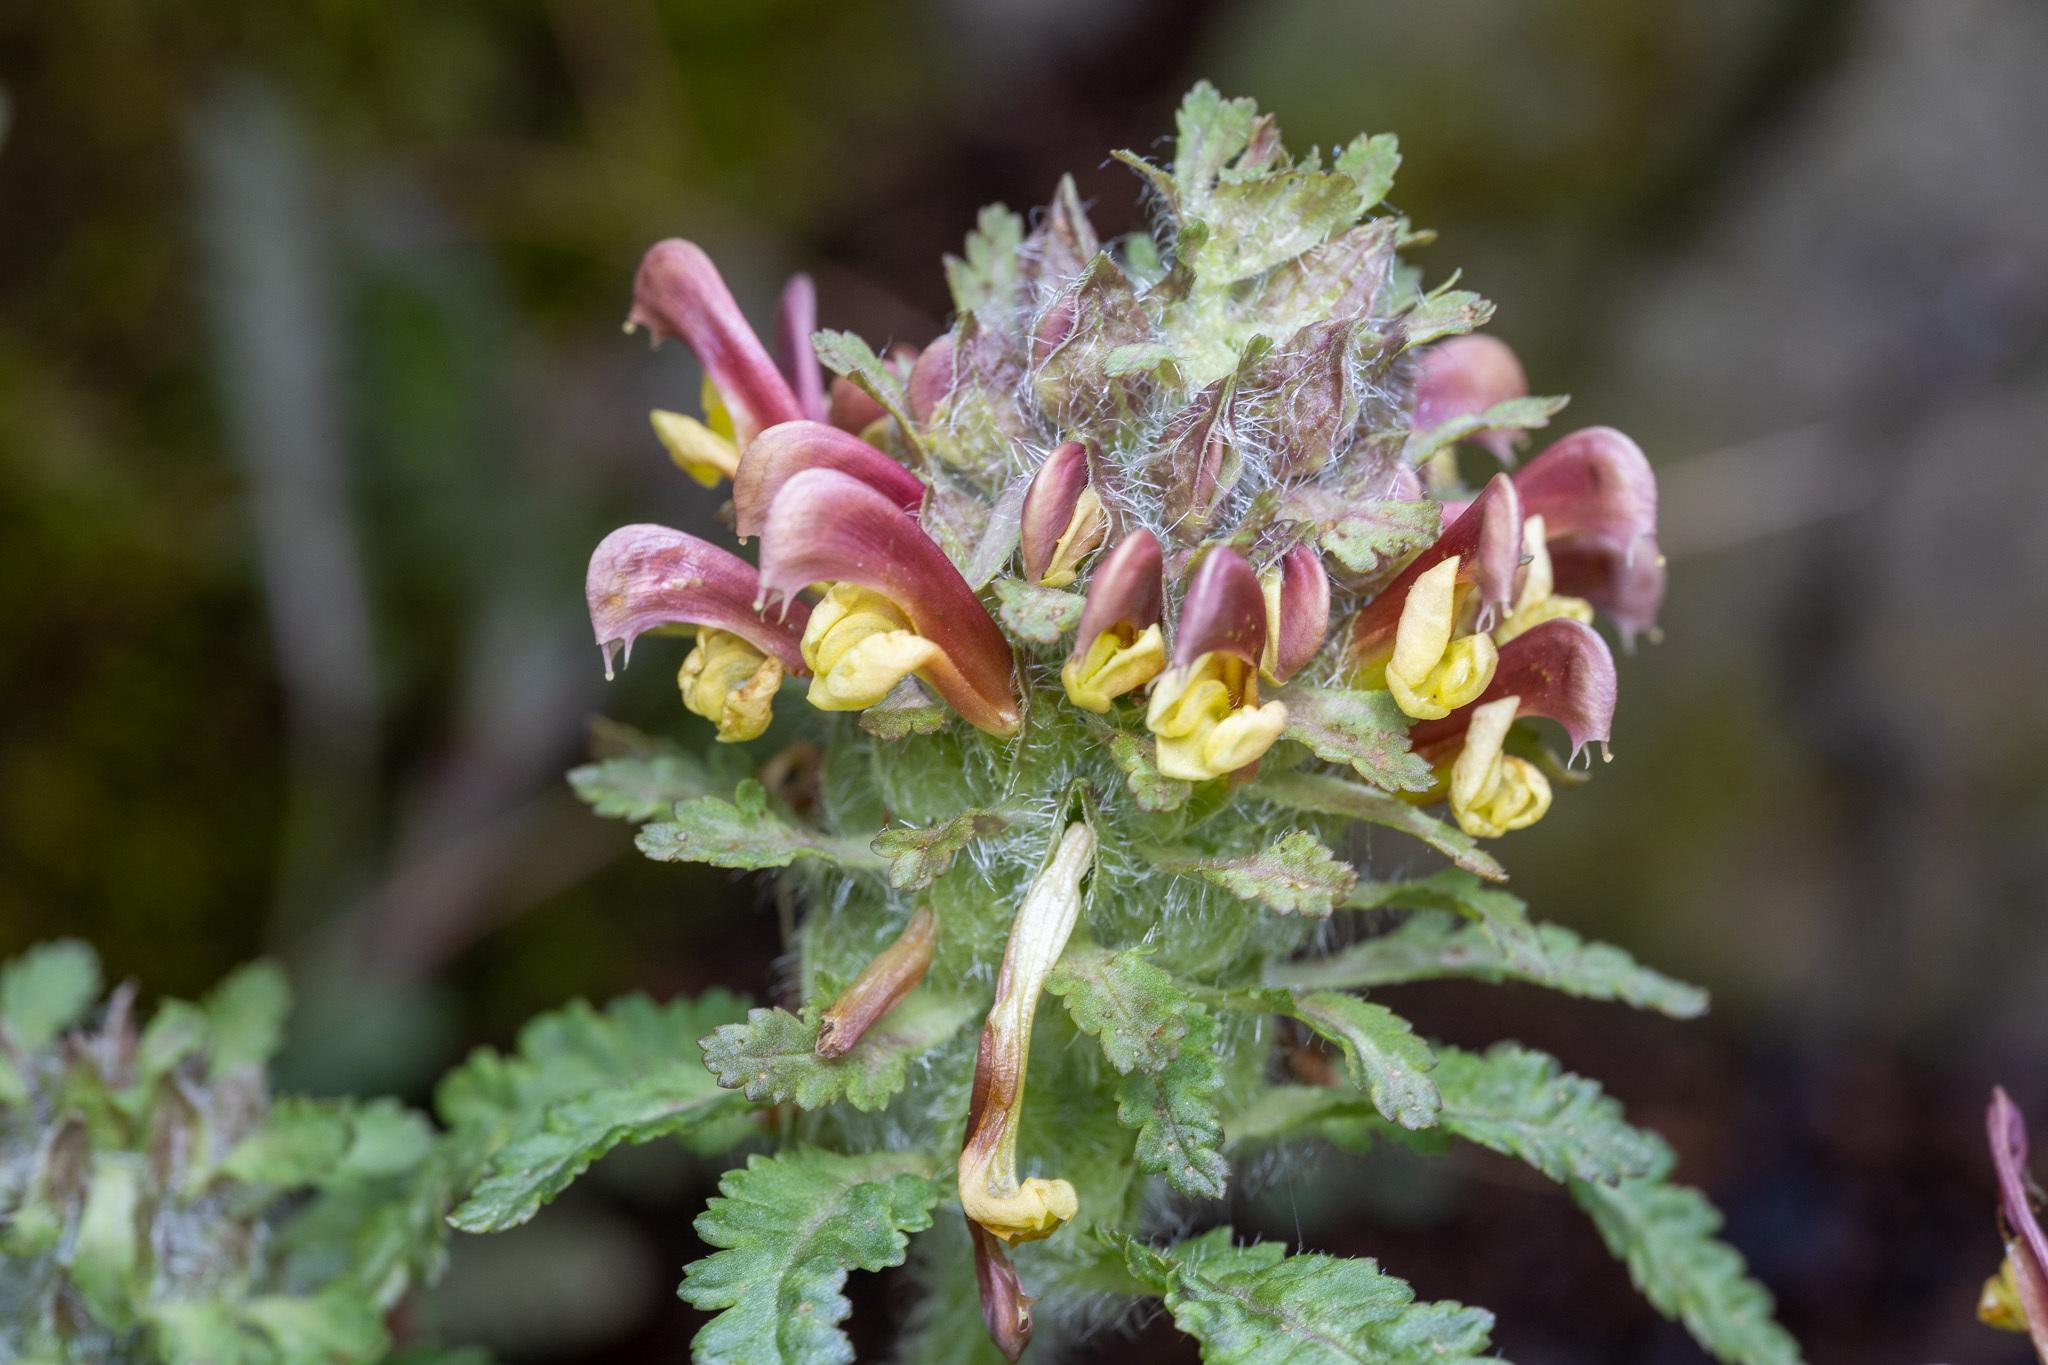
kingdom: Plantae
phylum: Tracheophyta
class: Magnoliopsida
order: Lamiales
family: Orobanchaceae
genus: Pedicularis
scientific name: Pedicularis canadensis
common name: Early lousewort
